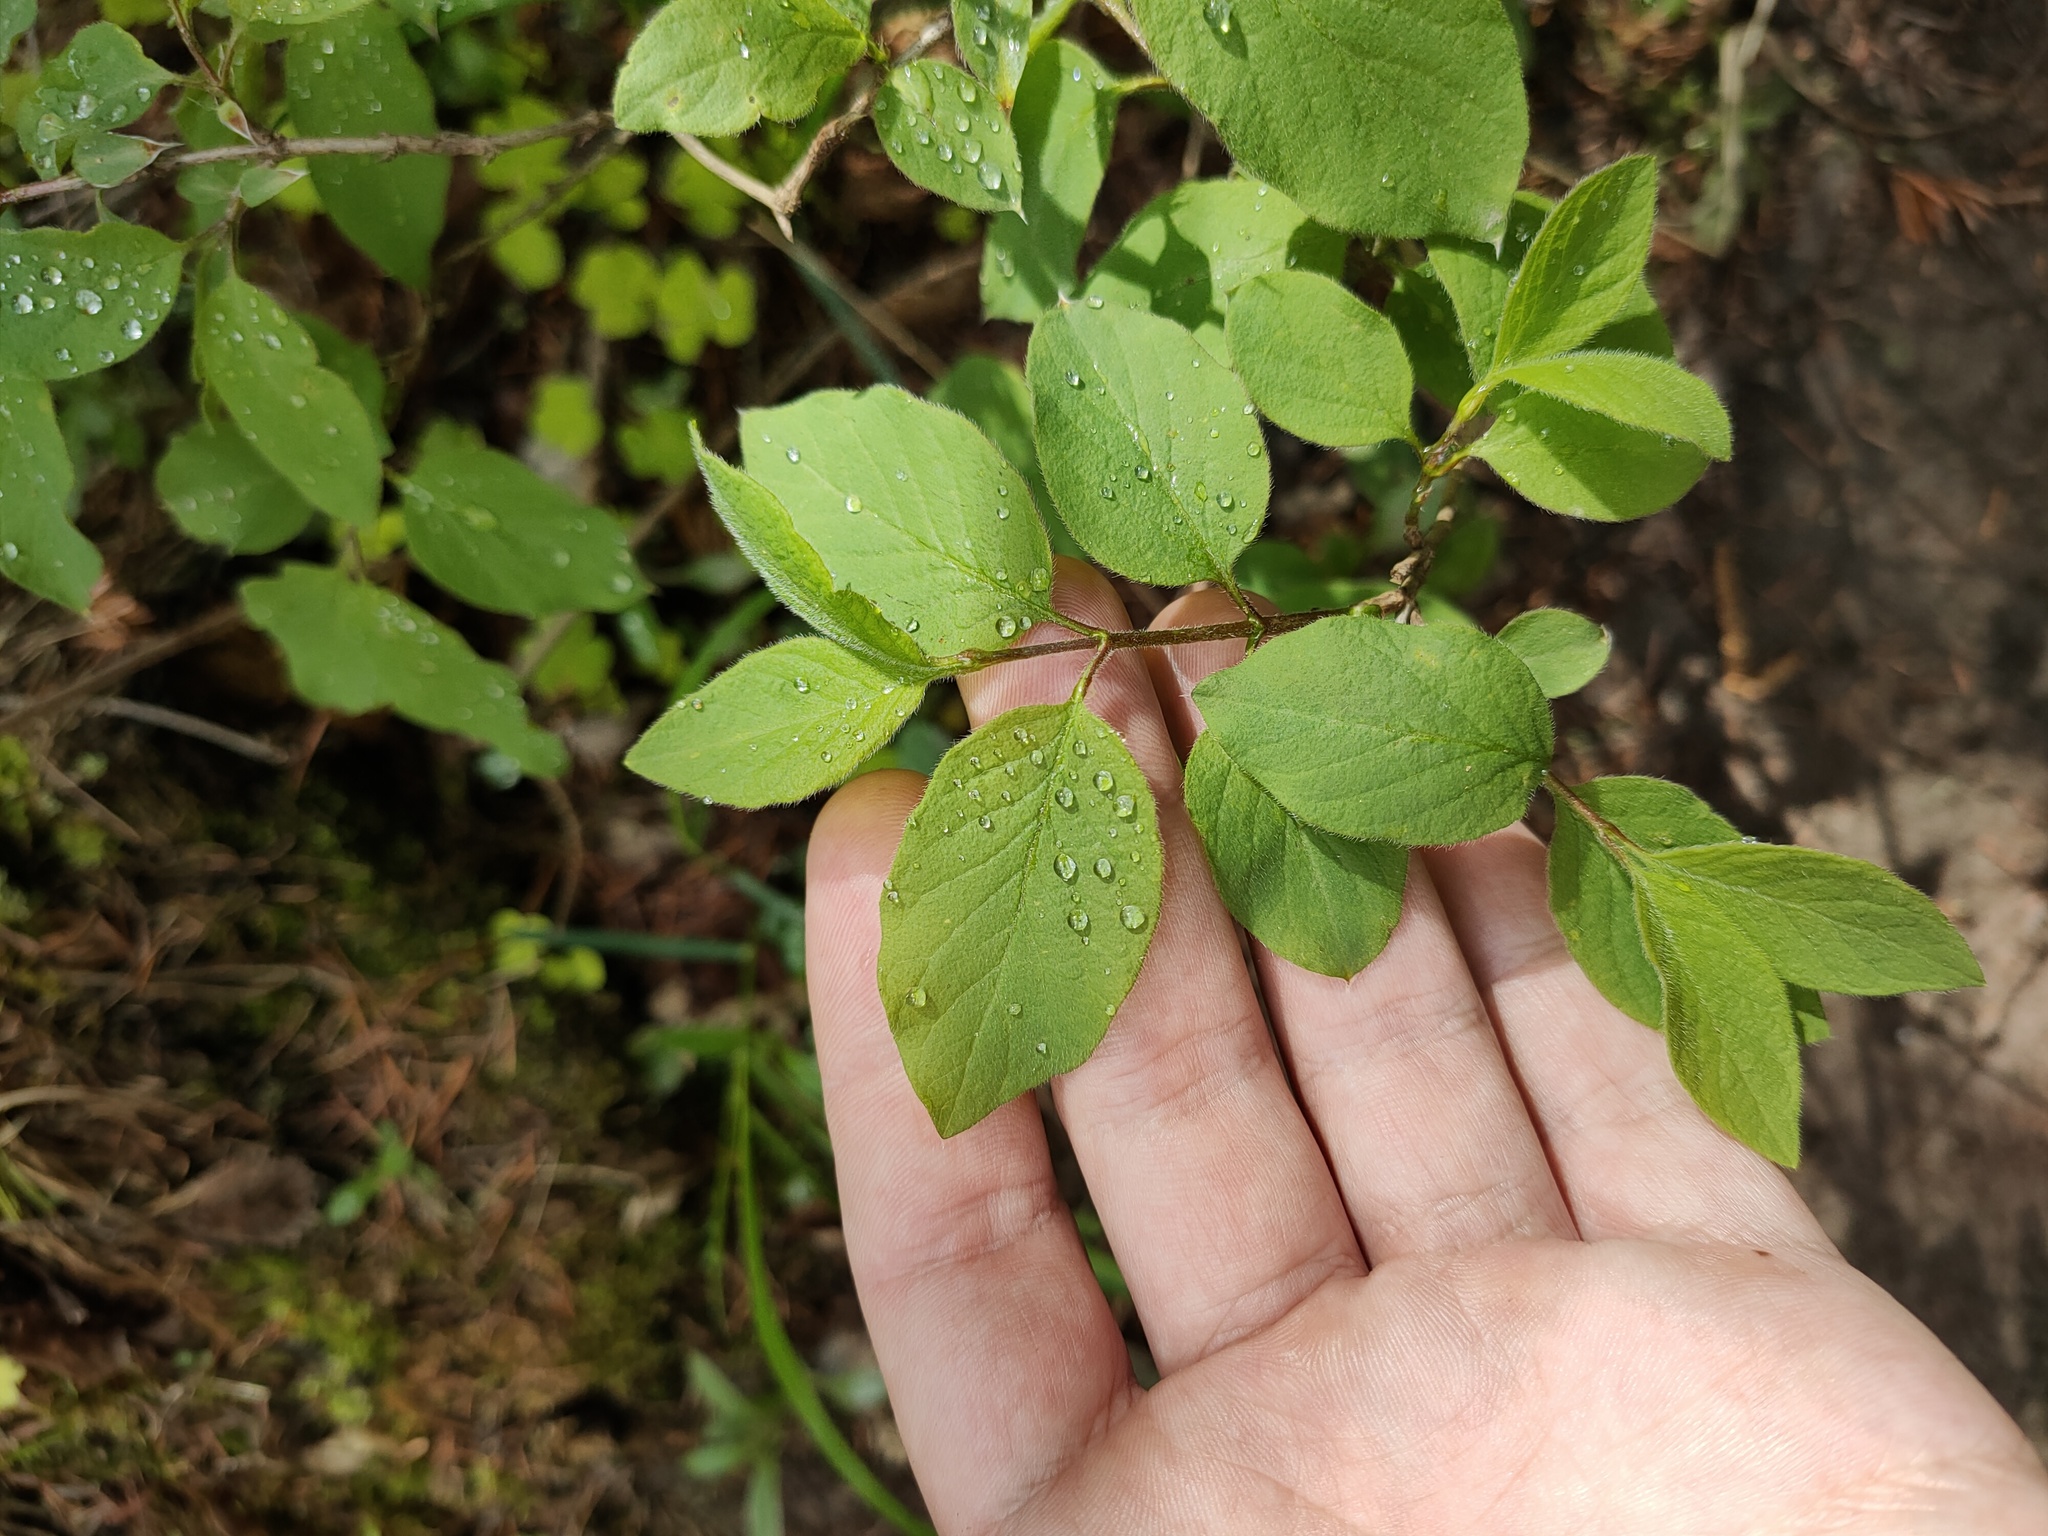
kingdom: Plantae
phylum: Tracheophyta
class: Magnoliopsida
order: Dipsacales
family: Caprifoliaceae
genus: Lonicera
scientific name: Lonicera xylosteum
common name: Fly honeysuckle
